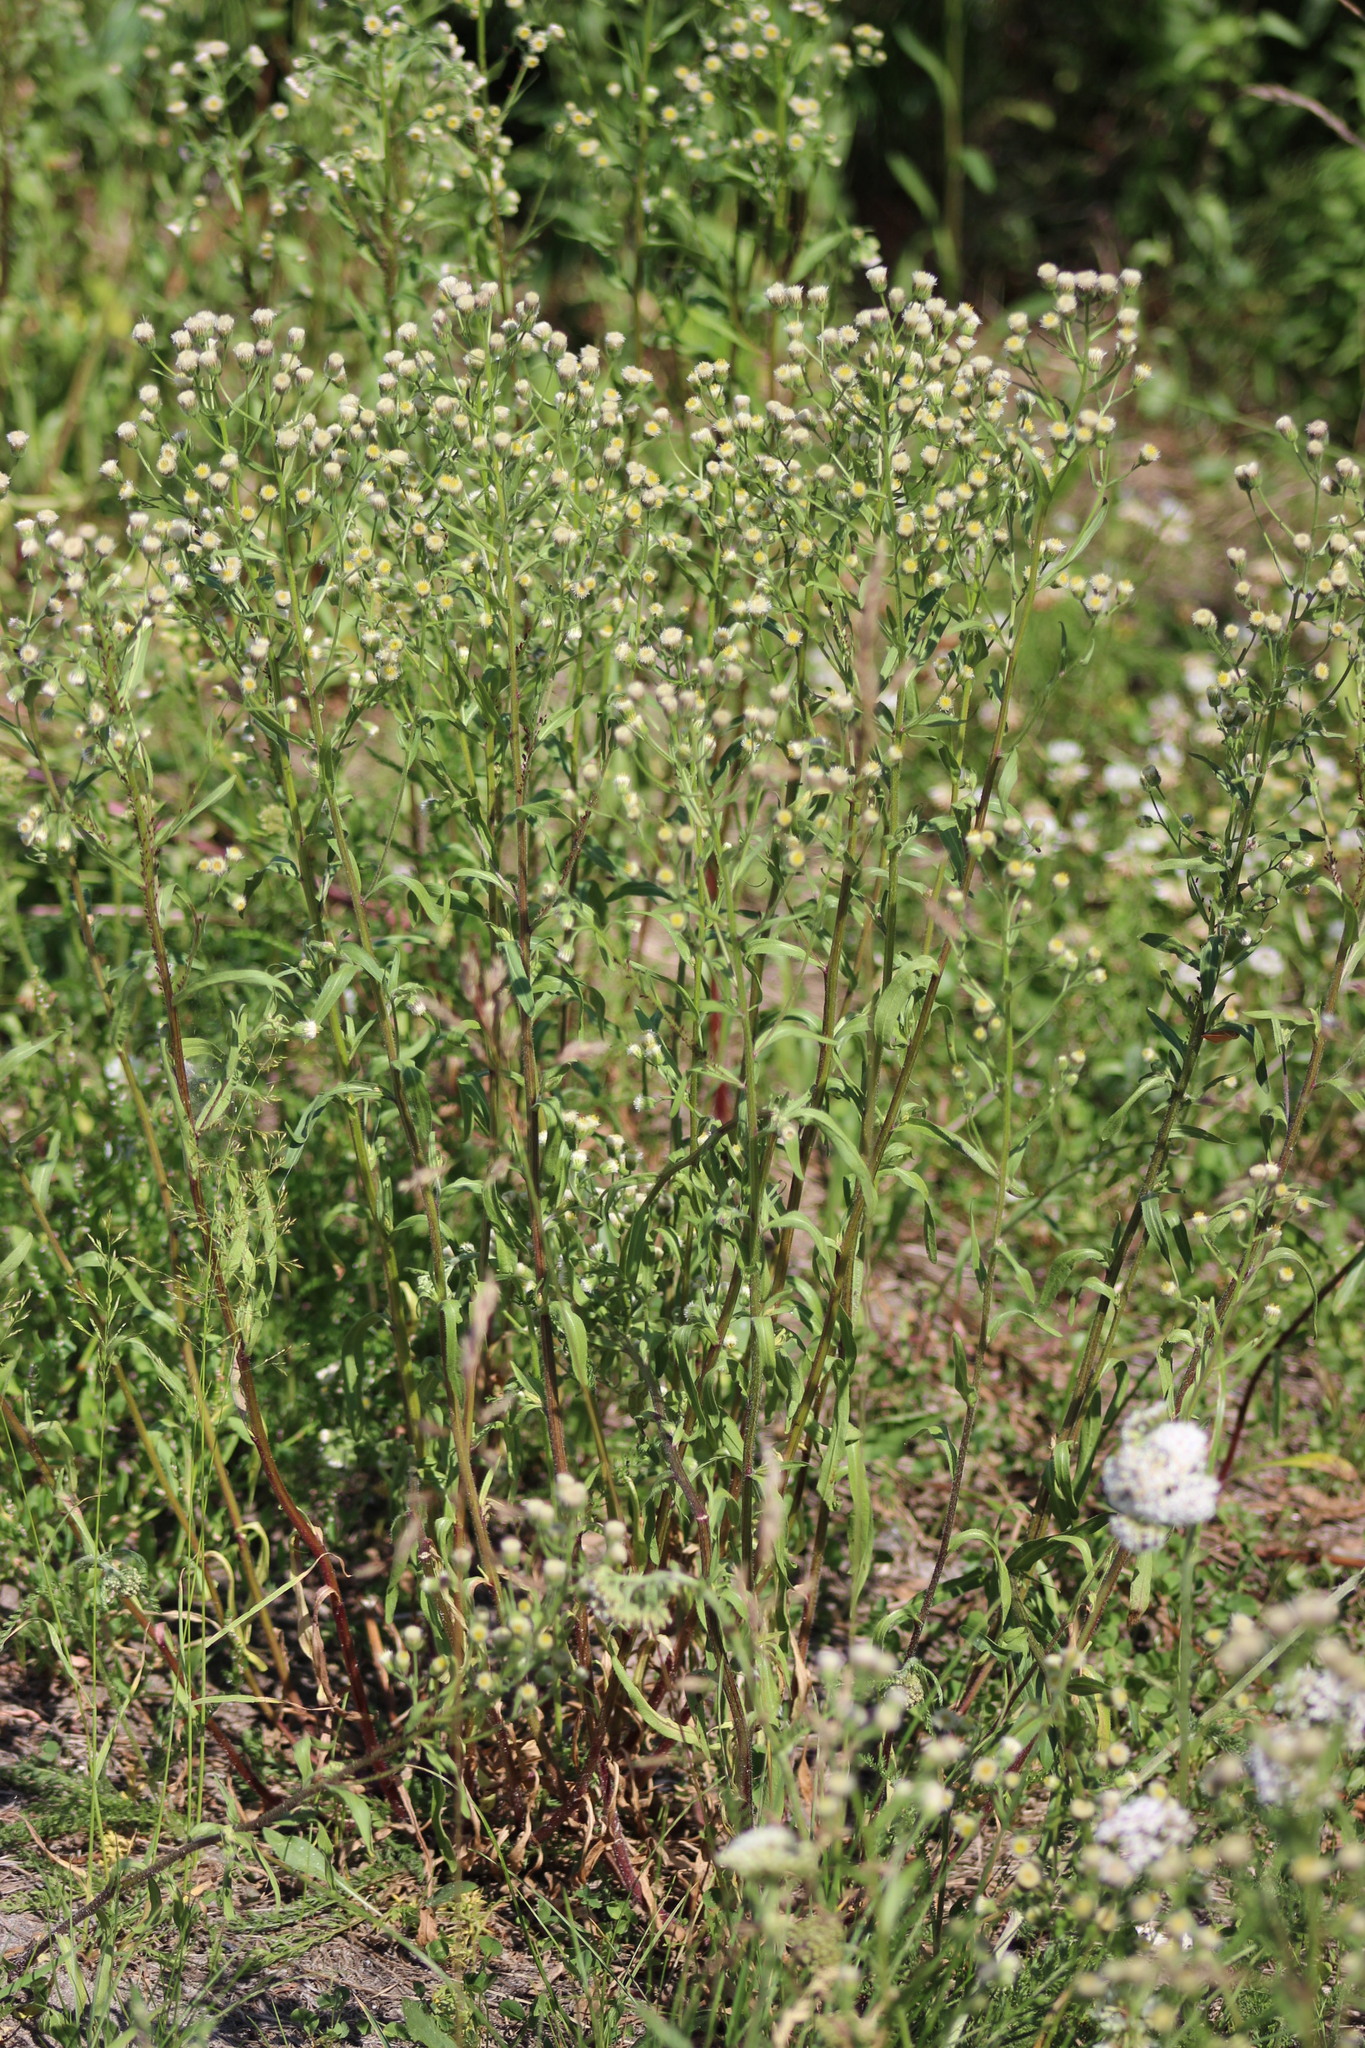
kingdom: Plantae
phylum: Tracheophyta
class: Magnoliopsida
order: Asterales
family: Asteraceae
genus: Erigeron
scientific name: Erigeron acris
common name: Blue fleabane
